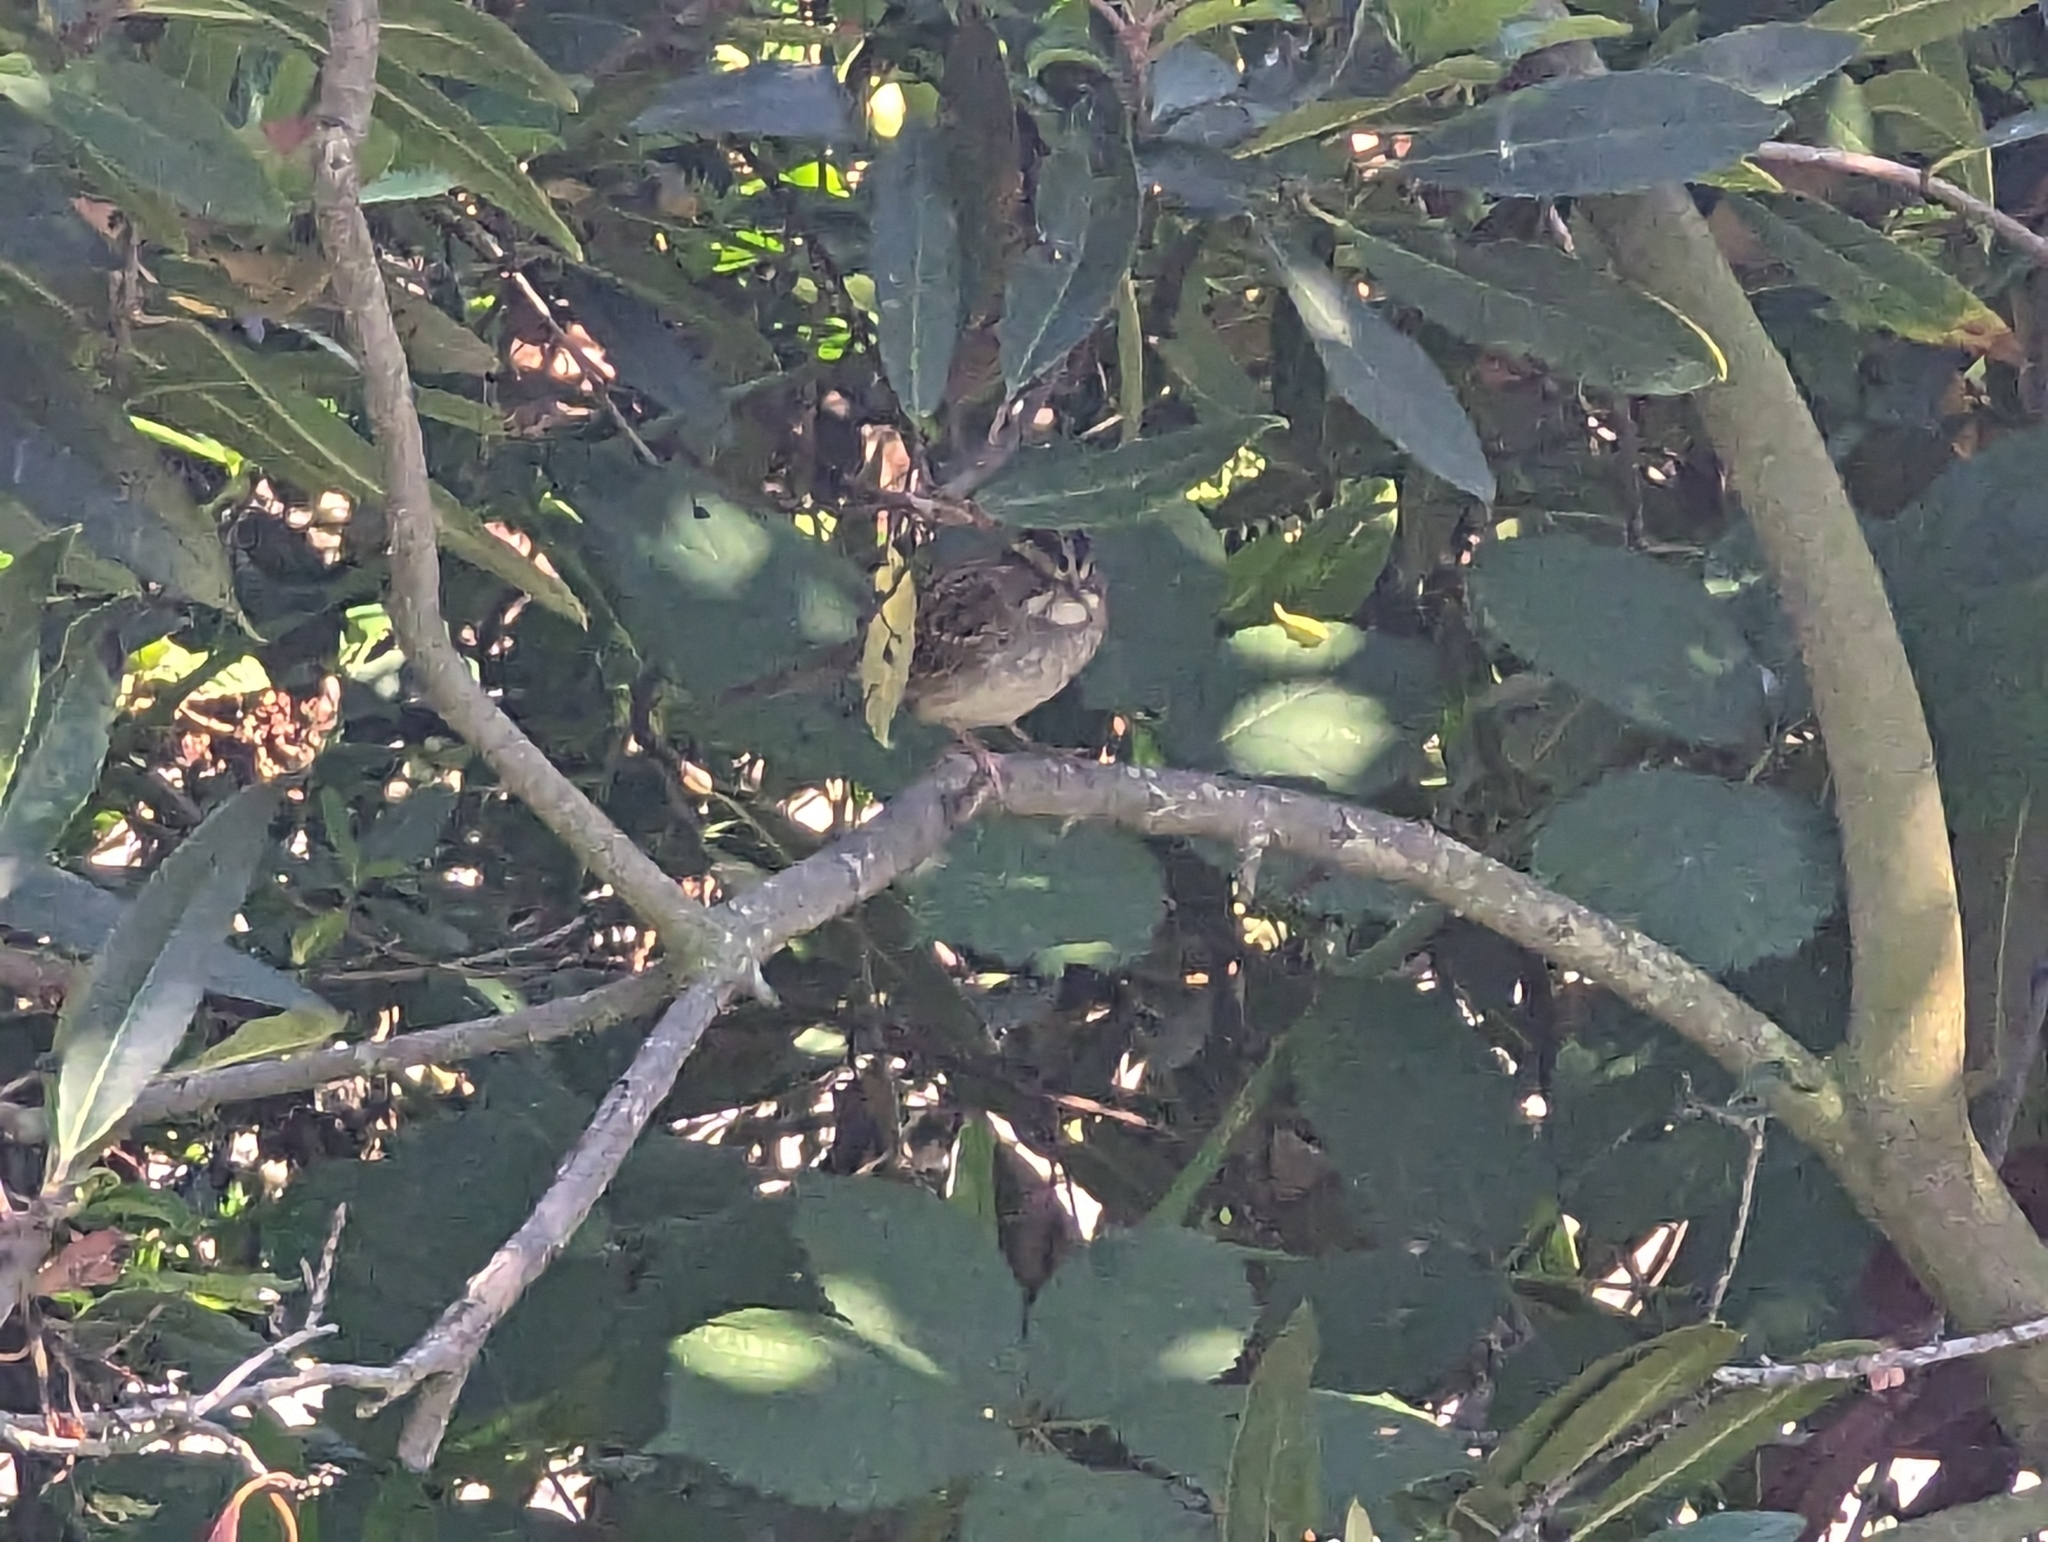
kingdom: Animalia
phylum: Chordata
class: Aves
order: Passeriformes
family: Passerellidae
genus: Zonotrichia
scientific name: Zonotrichia albicollis
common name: White-throated sparrow
